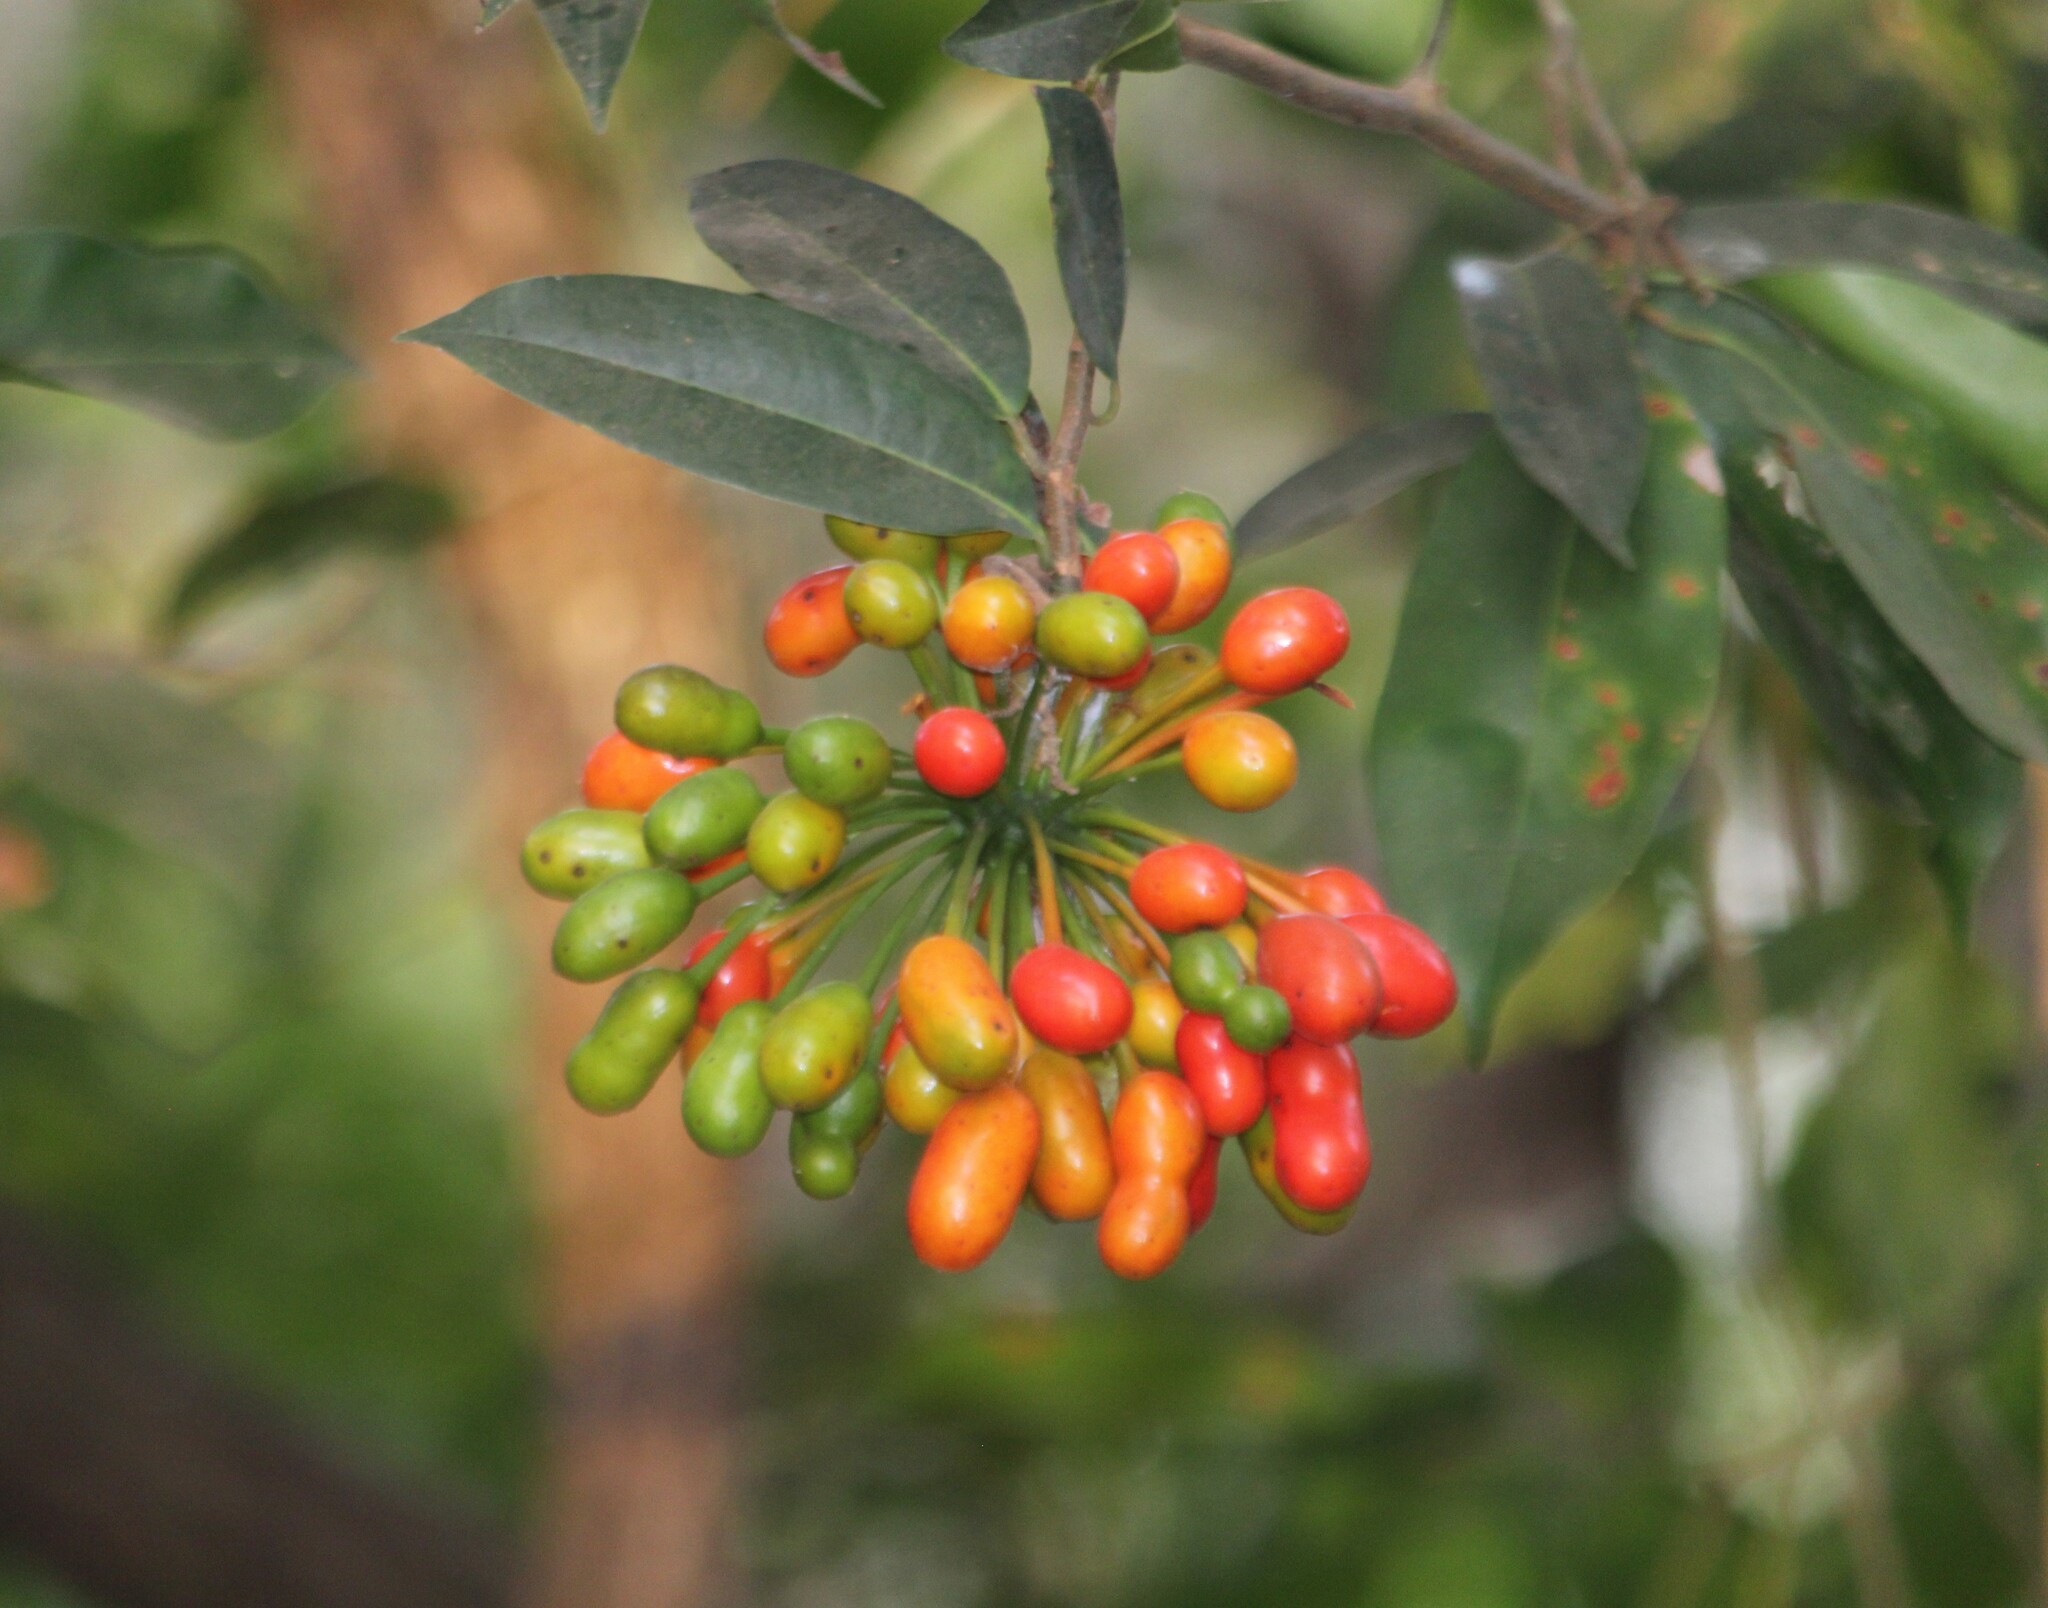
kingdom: Plantae
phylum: Tracheophyta
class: Magnoliopsida
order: Magnoliales
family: Annonaceae
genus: Uvaria
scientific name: Uvaria narum
